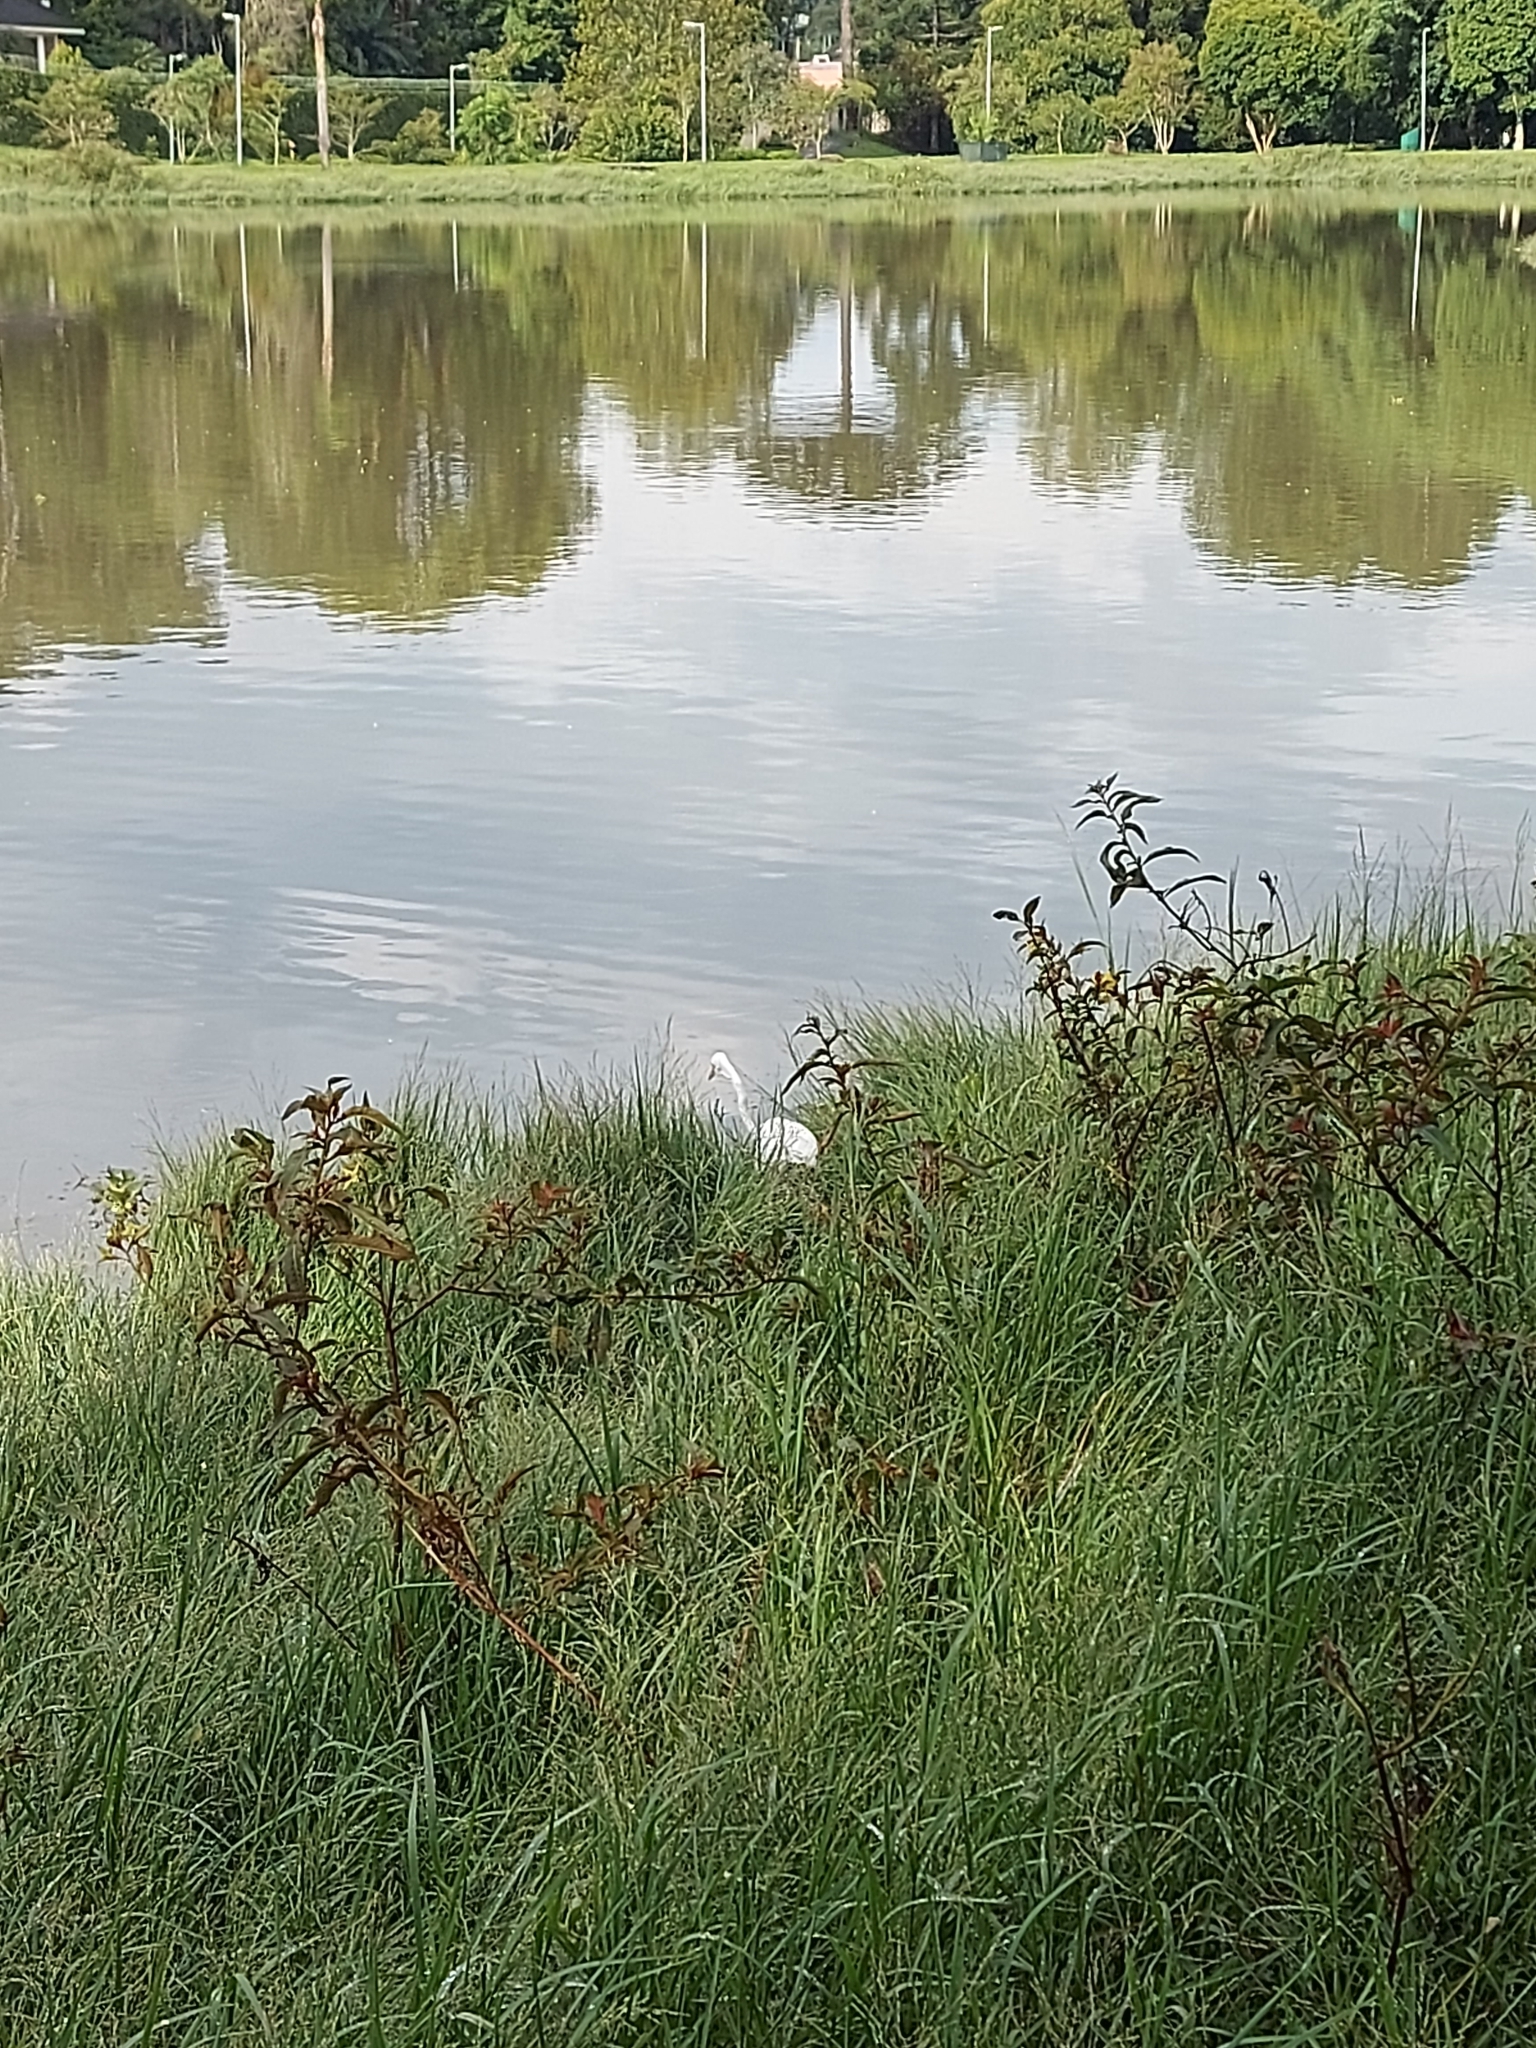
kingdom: Animalia
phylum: Chordata
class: Aves
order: Pelecaniformes
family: Ardeidae
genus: Ardea
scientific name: Ardea alba
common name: Great egret
